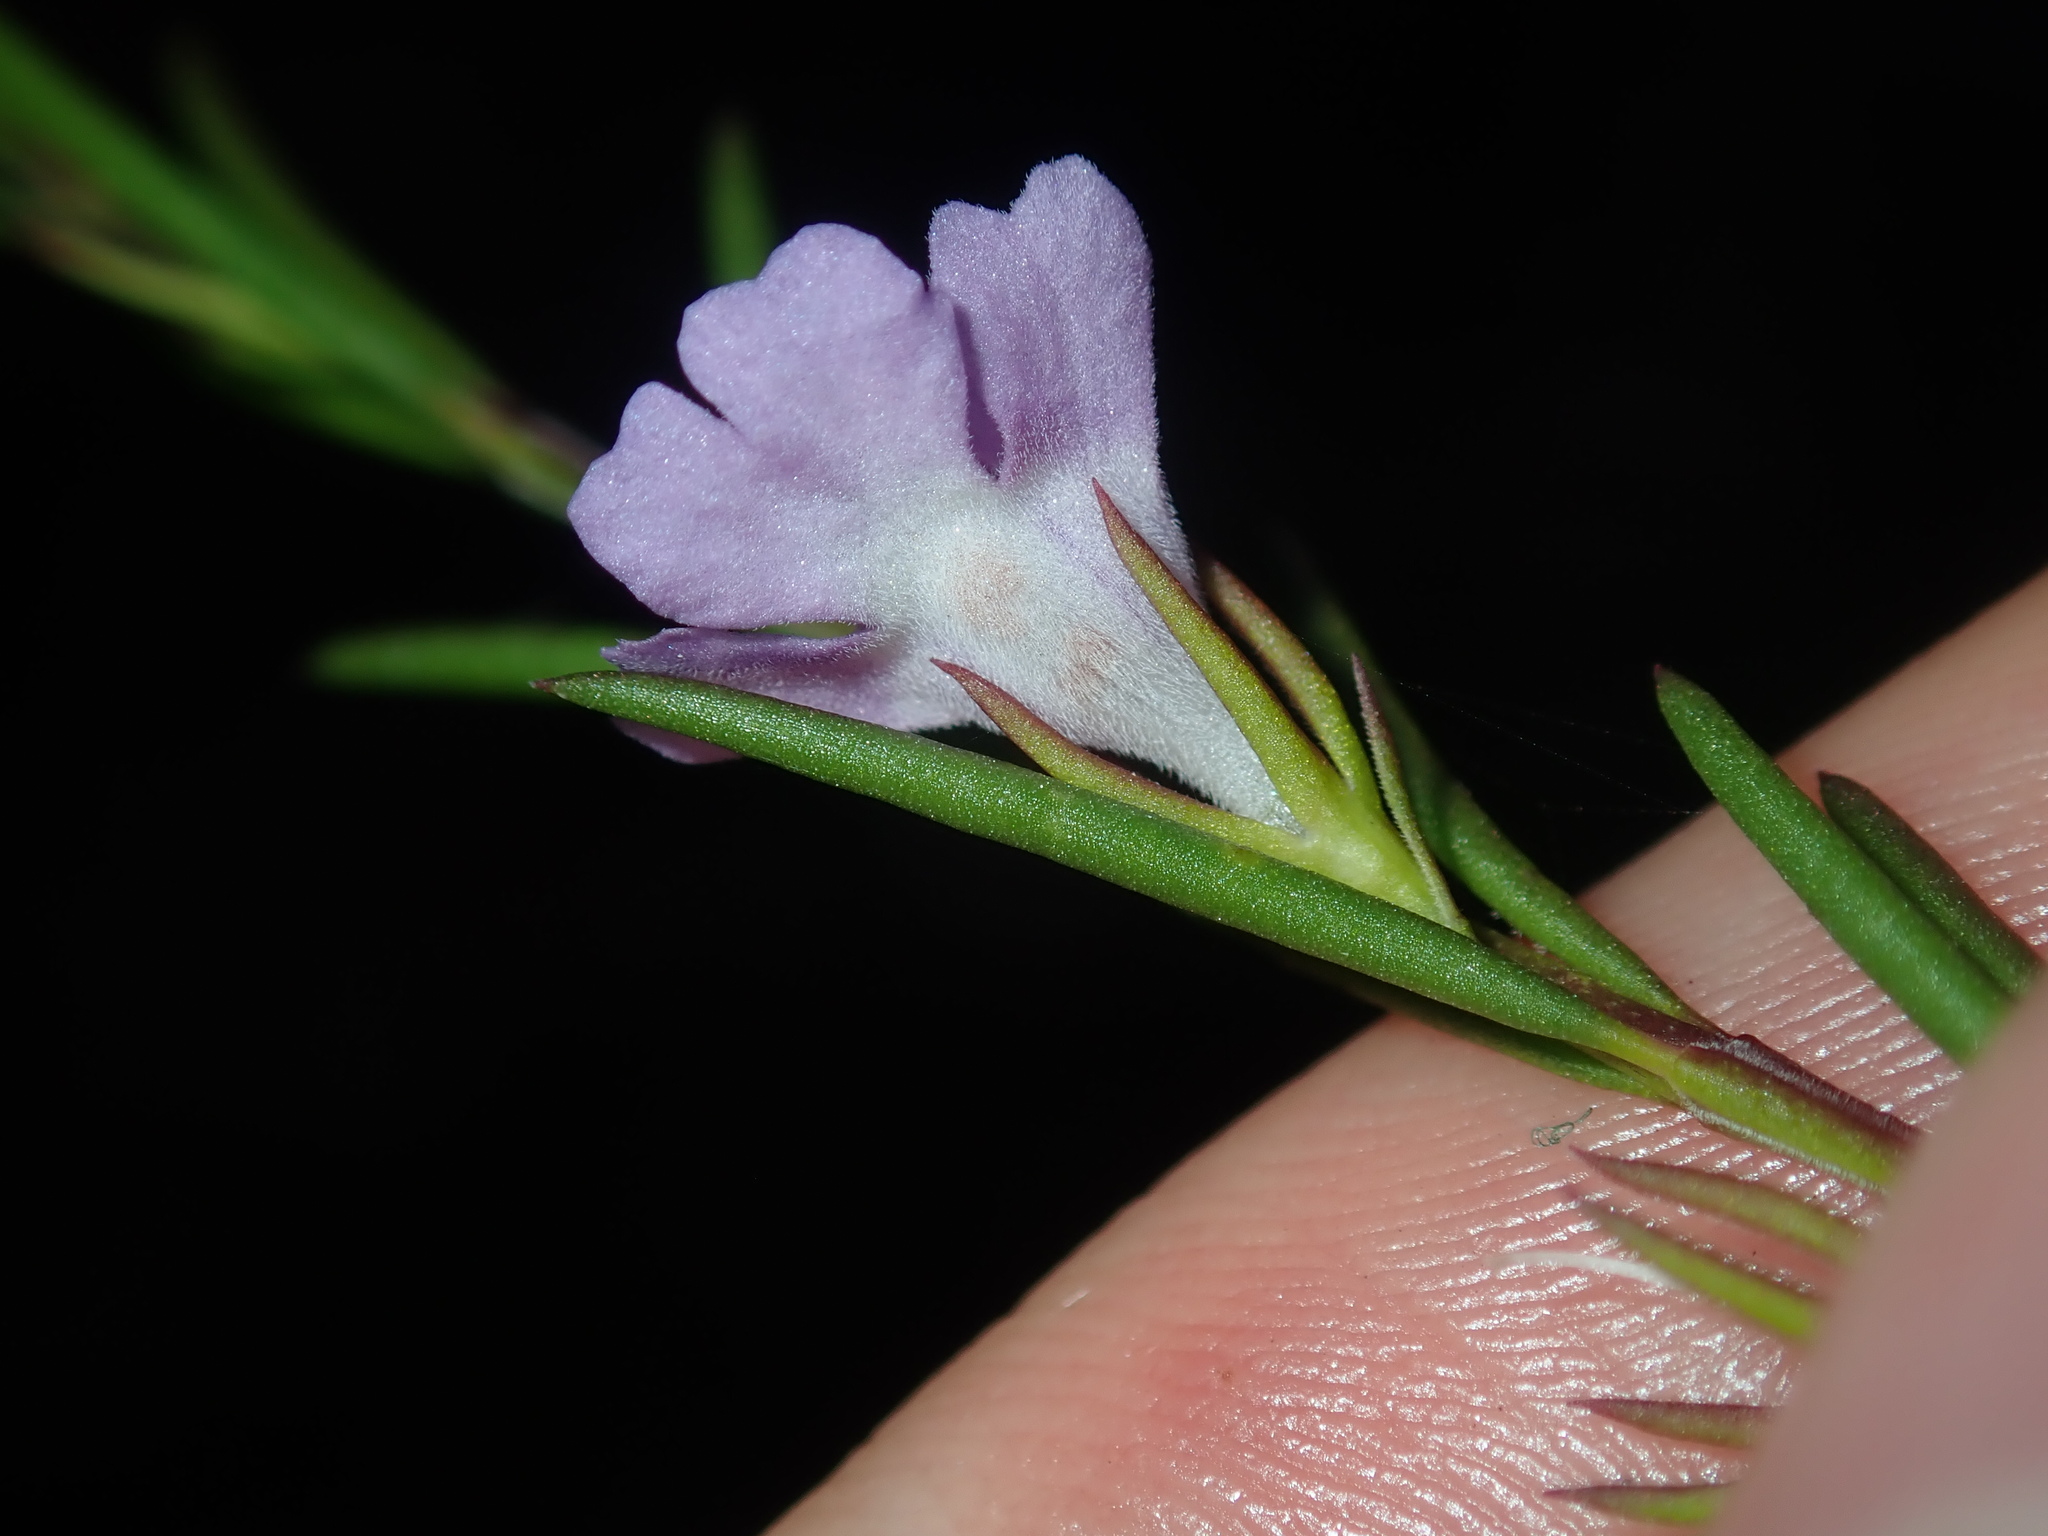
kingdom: Plantae
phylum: Tracheophyta
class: Magnoliopsida
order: Lamiales
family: Lamiaceae
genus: Hemigenia
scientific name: Hemigenia purpurea
